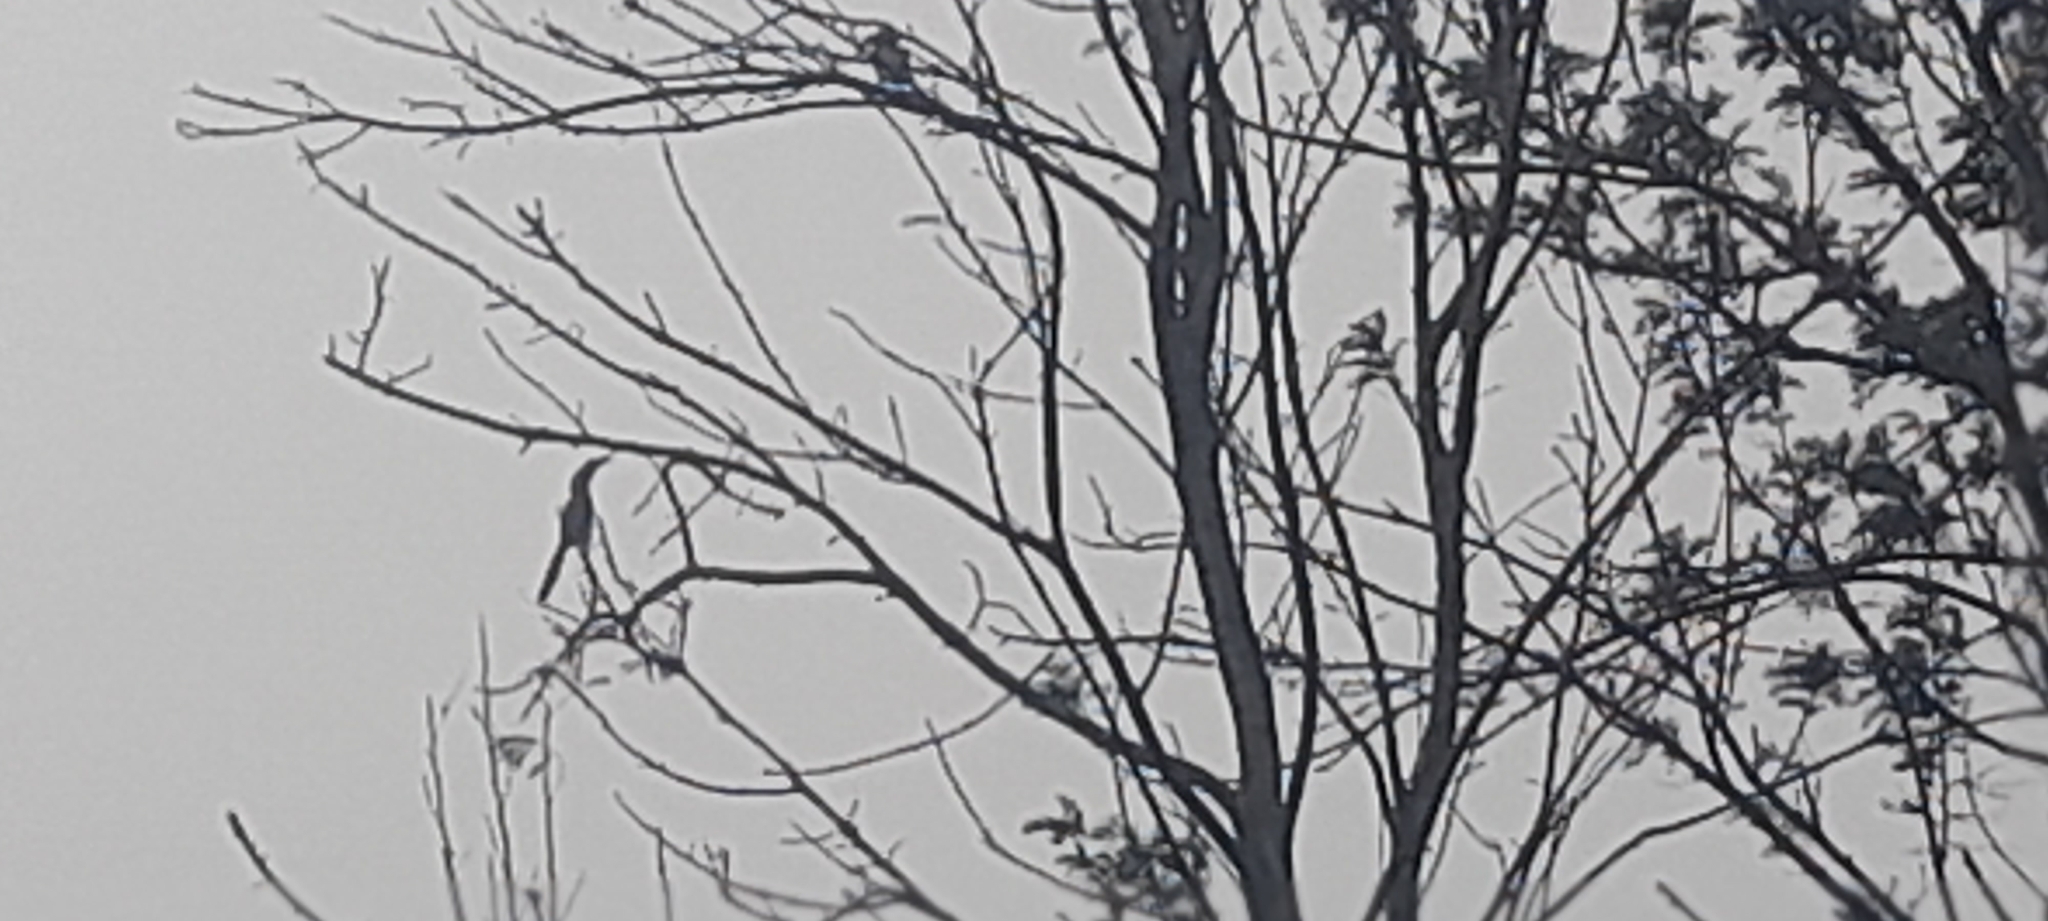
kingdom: Animalia
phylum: Chordata
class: Aves
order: Bucerotiformes
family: Bucerotidae
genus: Ocyceros
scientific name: Ocyceros birostris
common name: Indian grey hornbill
